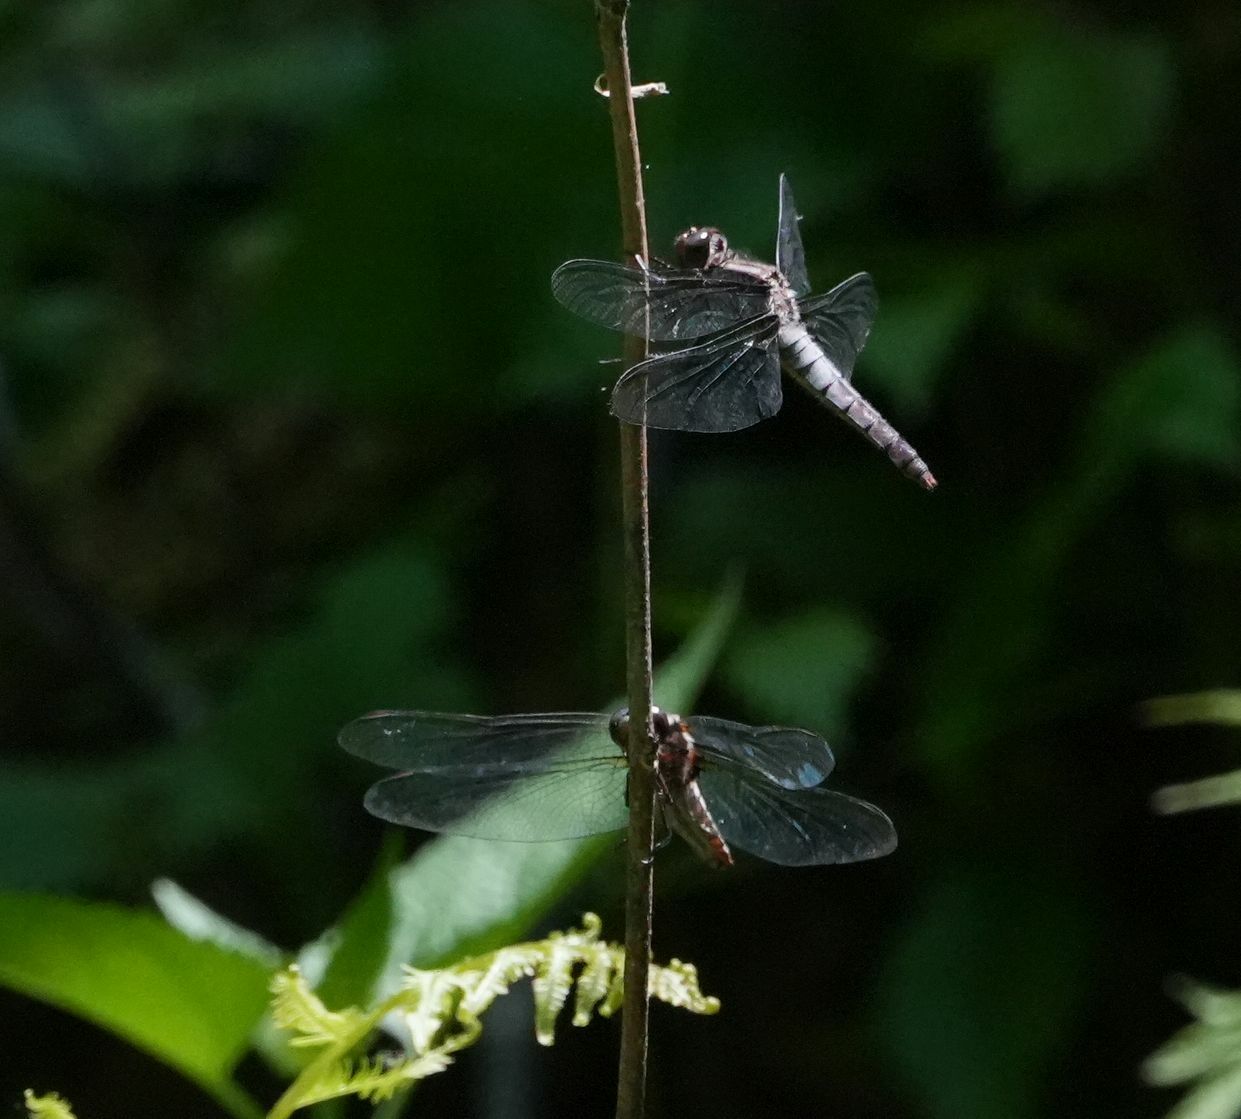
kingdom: Animalia
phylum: Arthropoda
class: Insecta
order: Odonata
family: Libellulidae
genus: Ladona
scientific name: Ladona julia
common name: Chalk-fronted corporal
